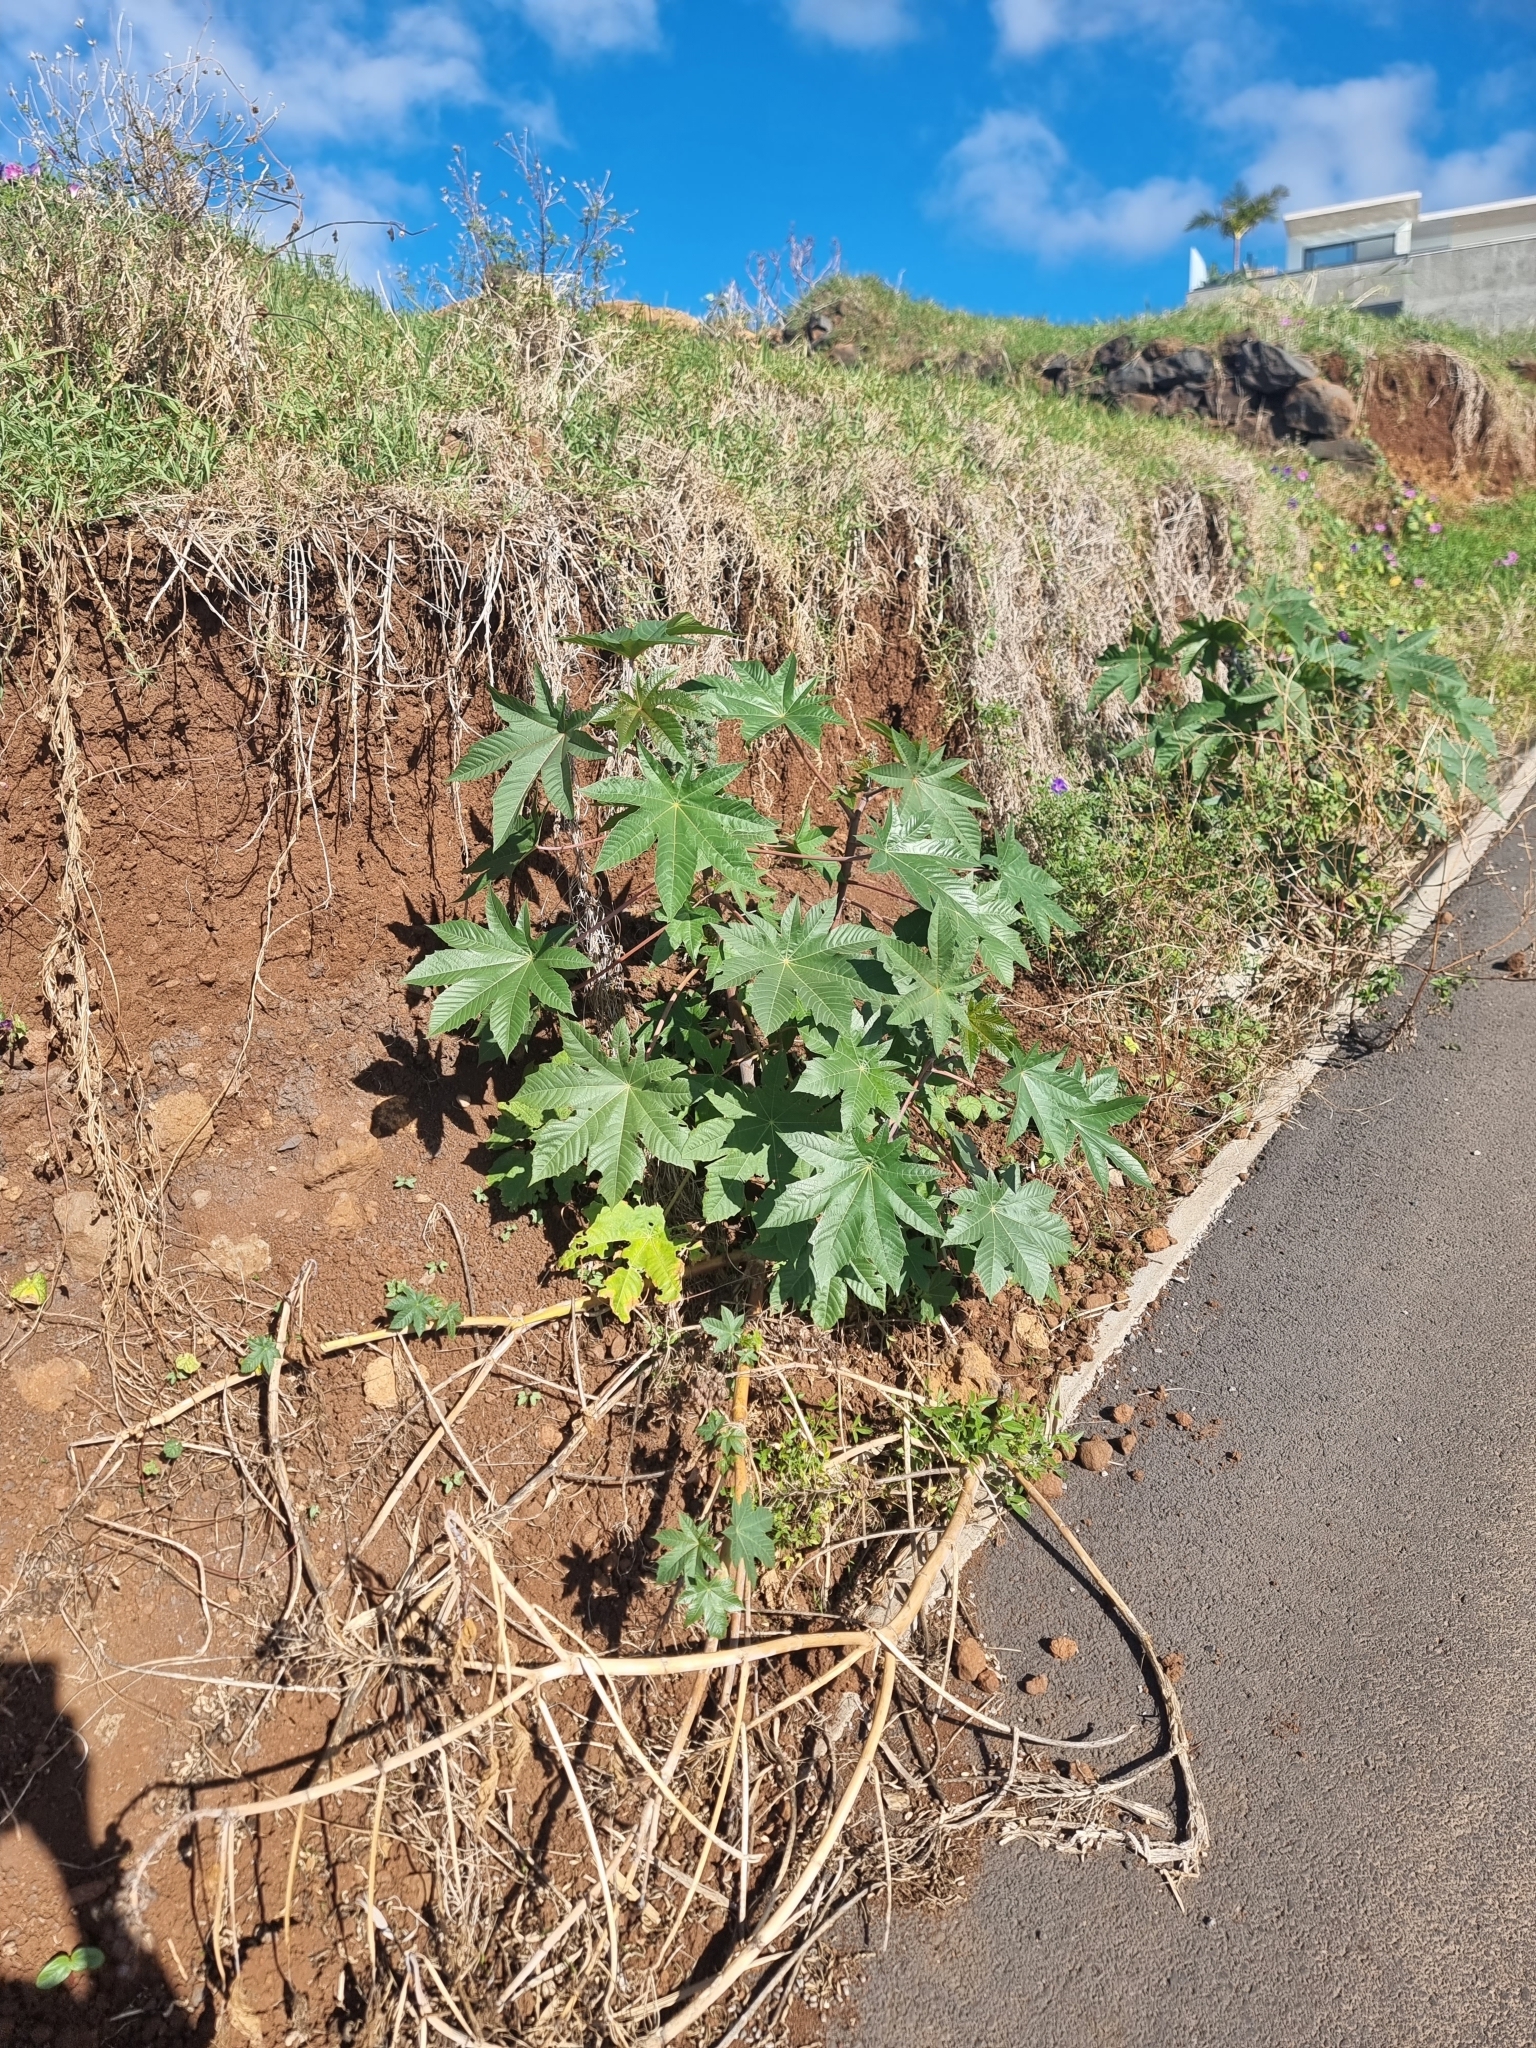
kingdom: Plantae
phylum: Tracheophyta
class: Magnoliopsida
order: Malpighiales
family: Euphorbiaceae
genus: Ricinus
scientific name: Ricinus communis
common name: Castor-oil-plant
